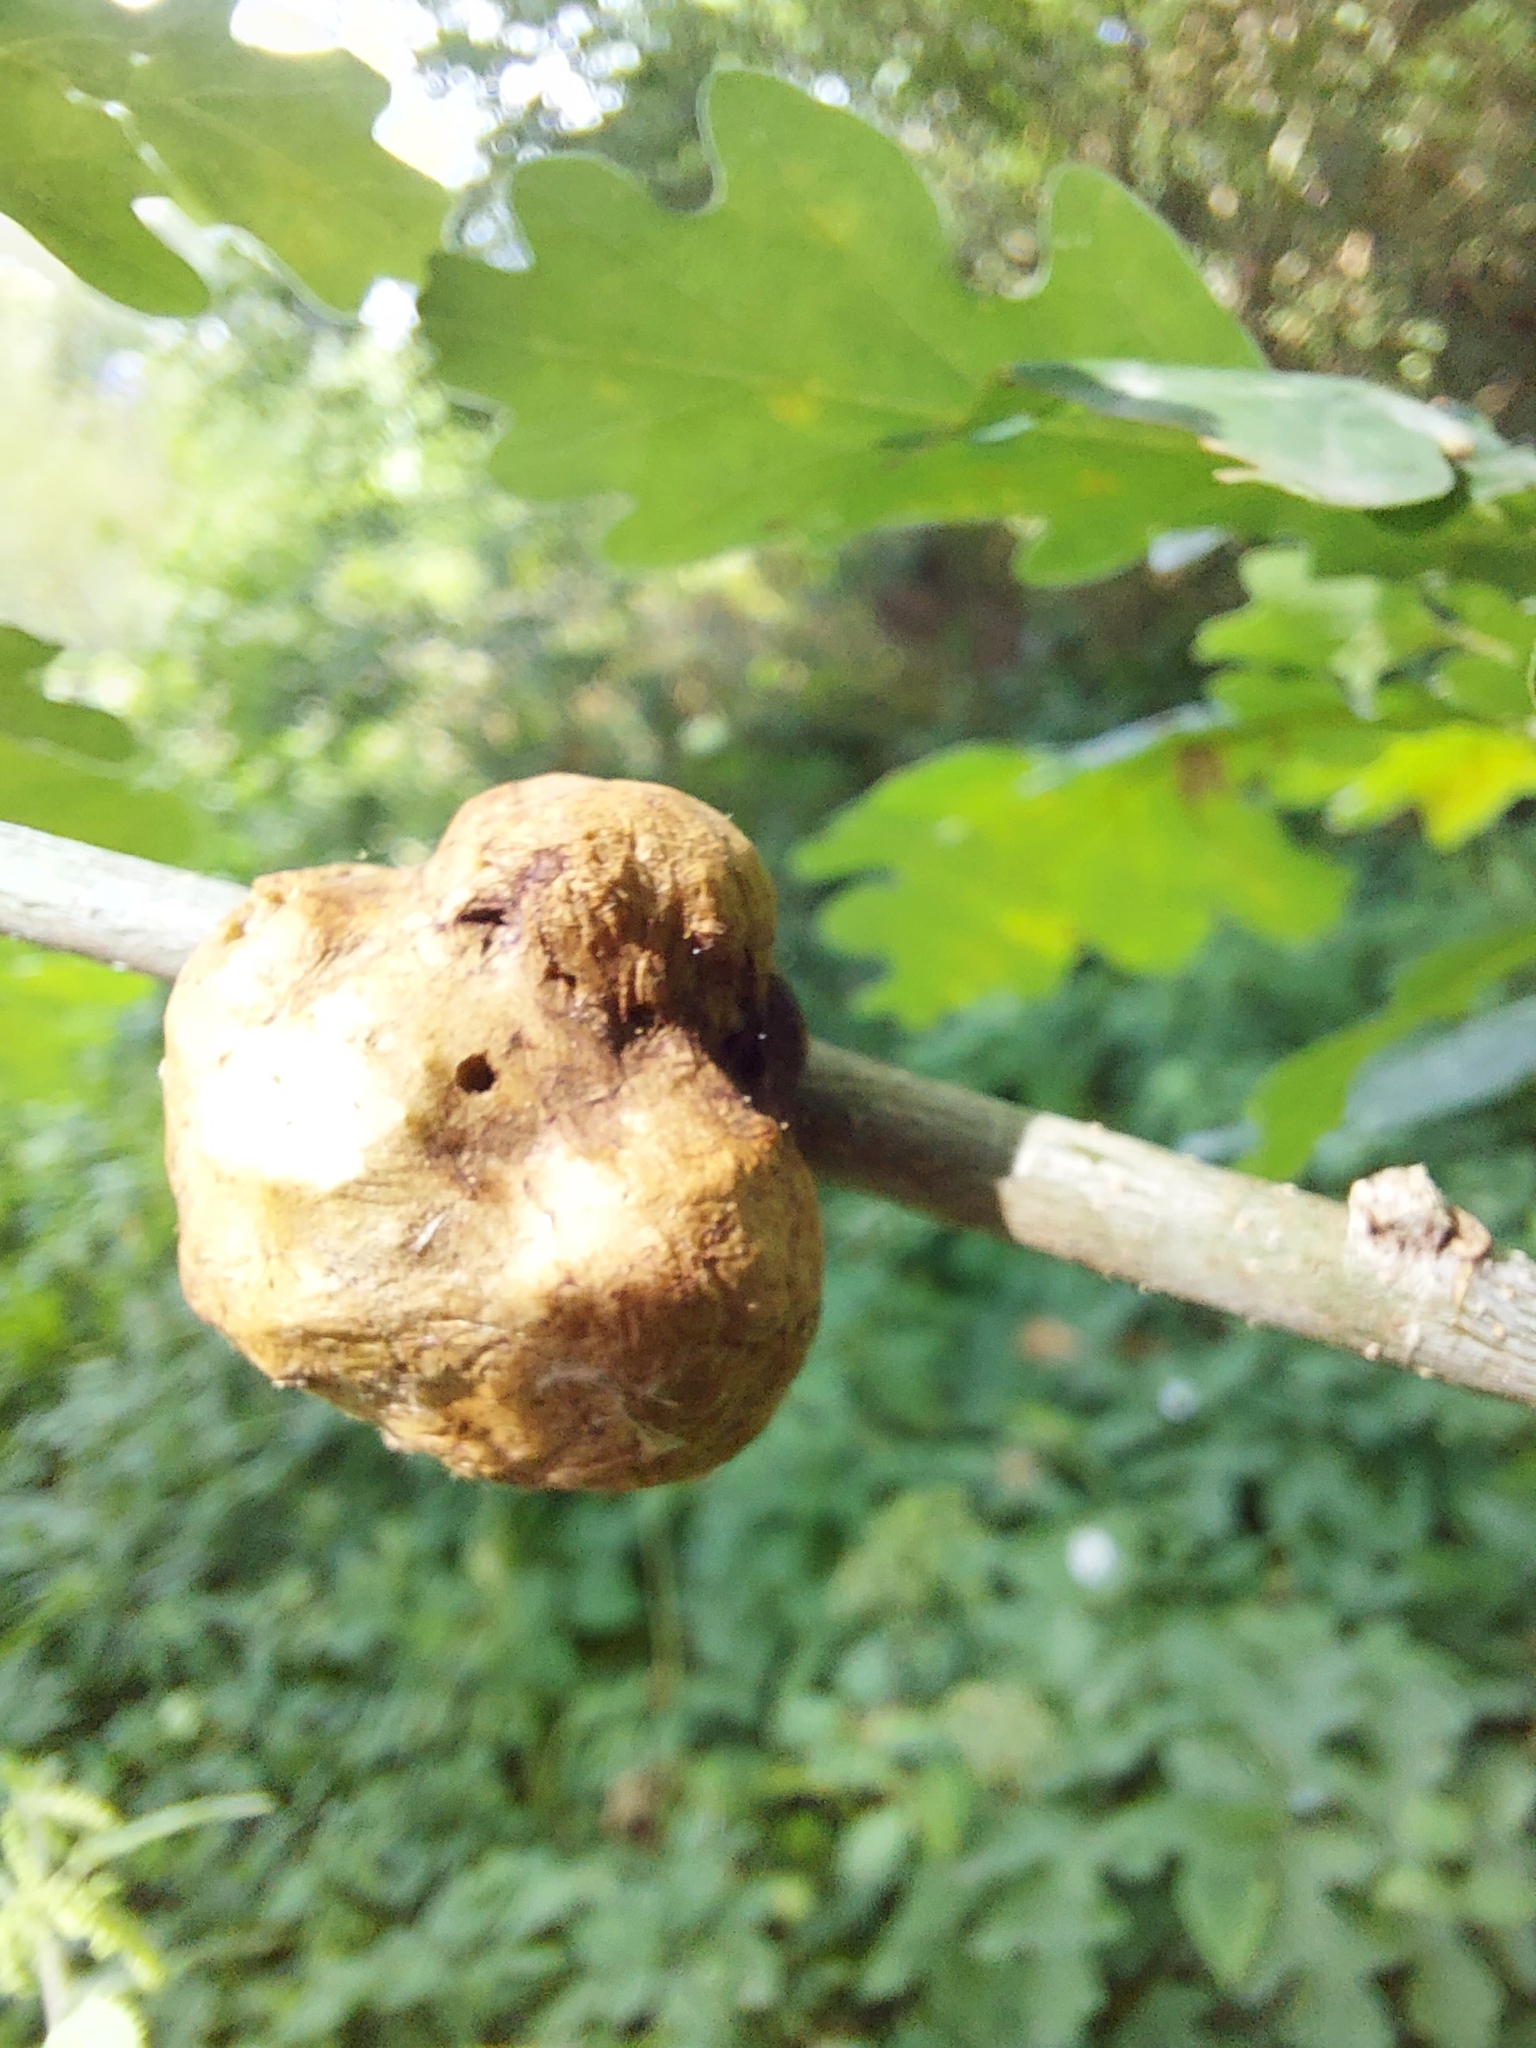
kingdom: Animalia
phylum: Arthropoda
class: Insecta
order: Hymenoptera
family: Cynipidae
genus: Biorhiza
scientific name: Biorhiza pallida
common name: Oak apple
